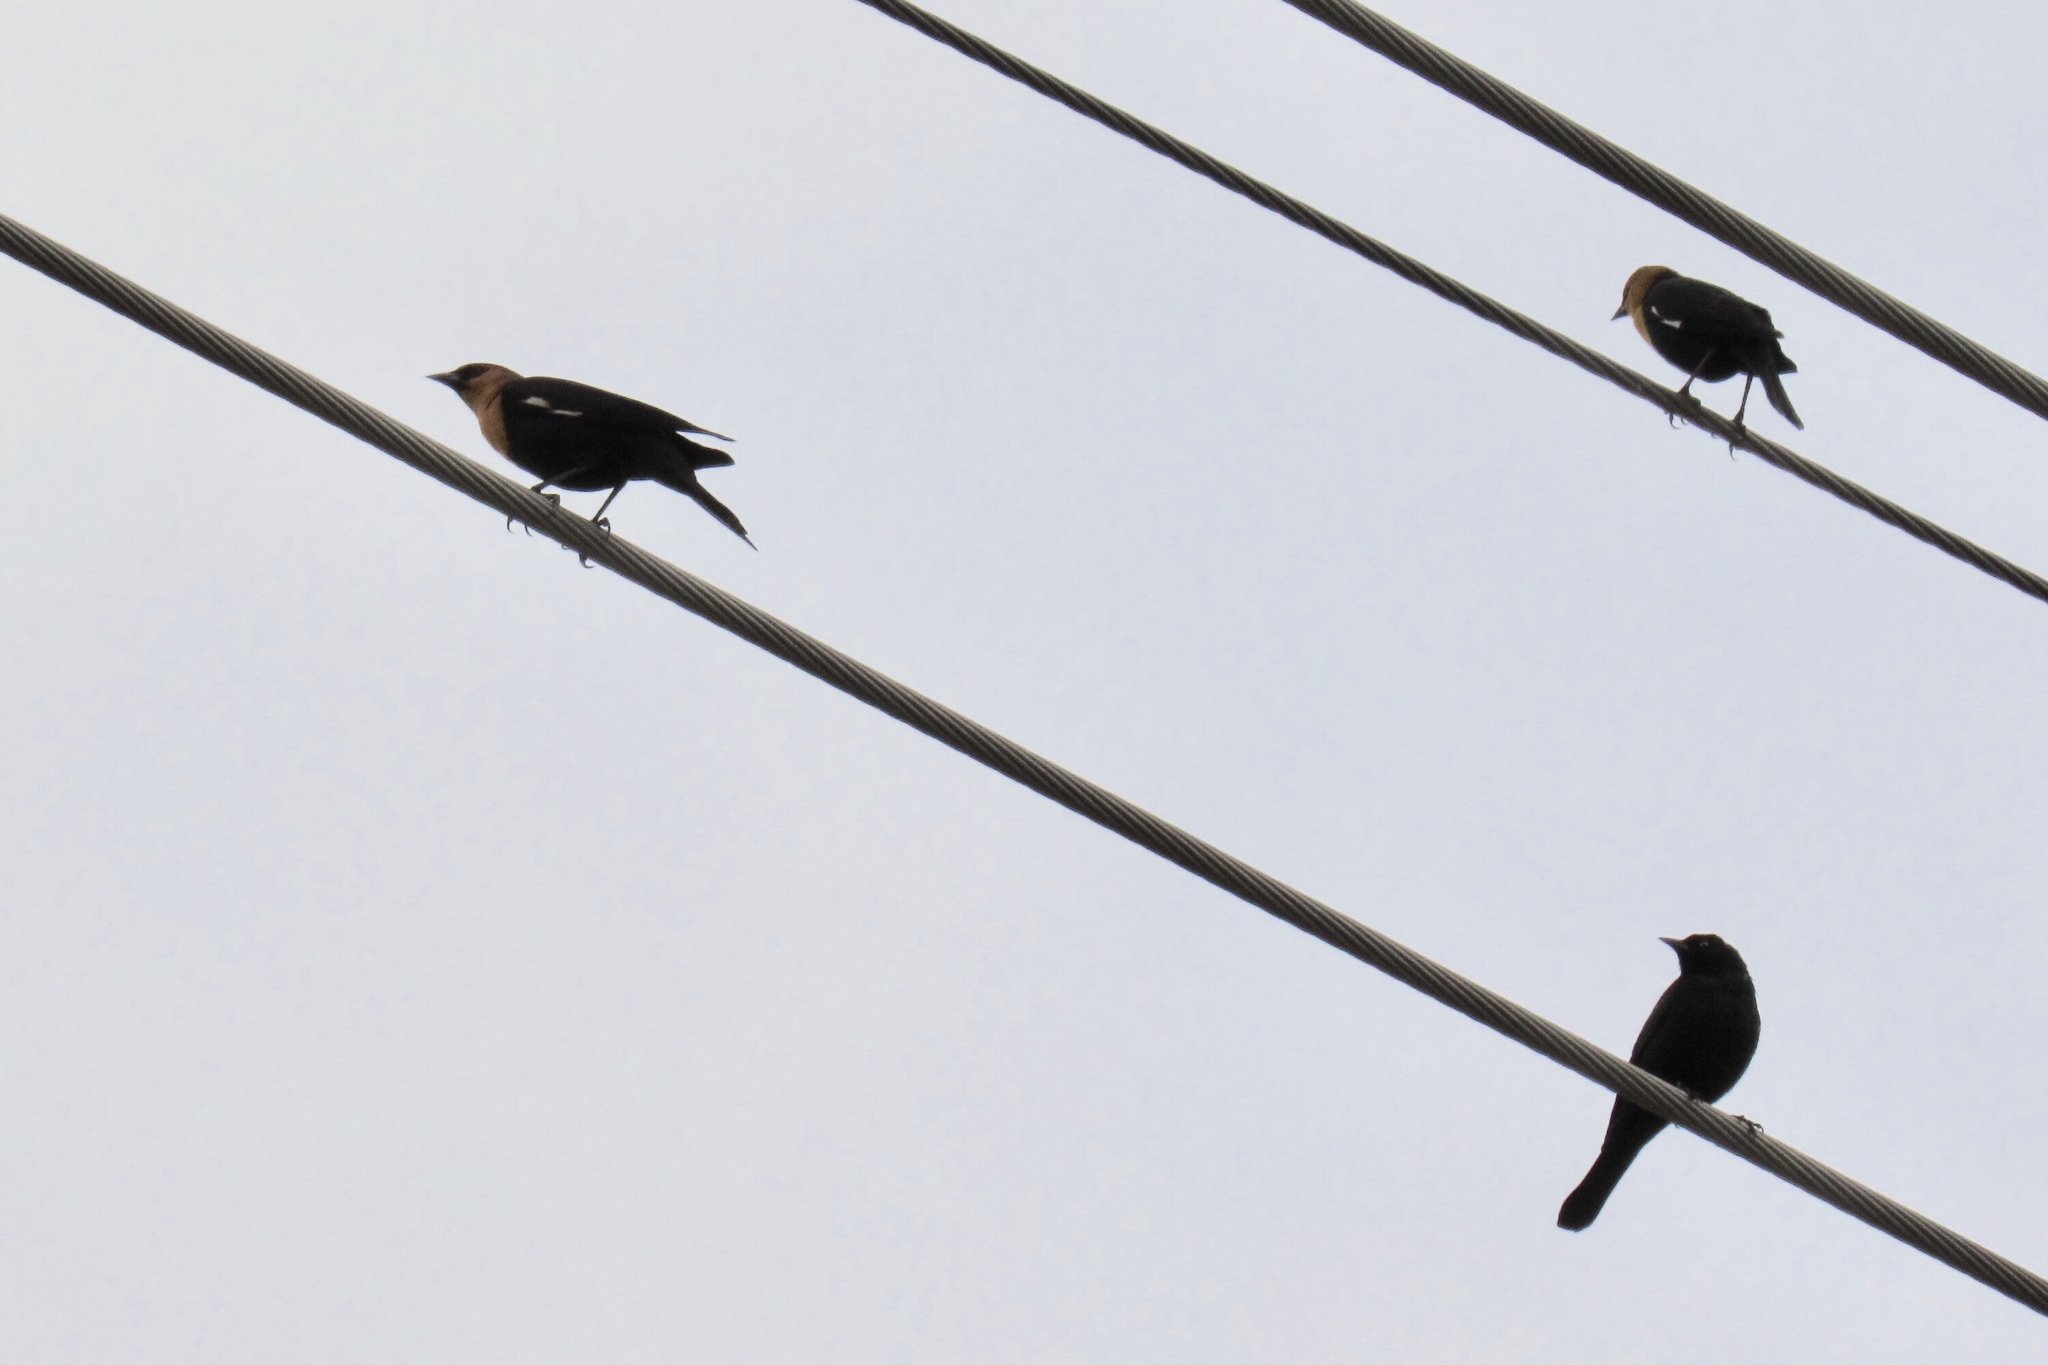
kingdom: Animalia
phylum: Chordata
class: Aves
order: Passeriformes
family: Icteridae
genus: Xanthocephalus
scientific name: Xanthocephalus xanthocephalus
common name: Yellow-headed blackbird
